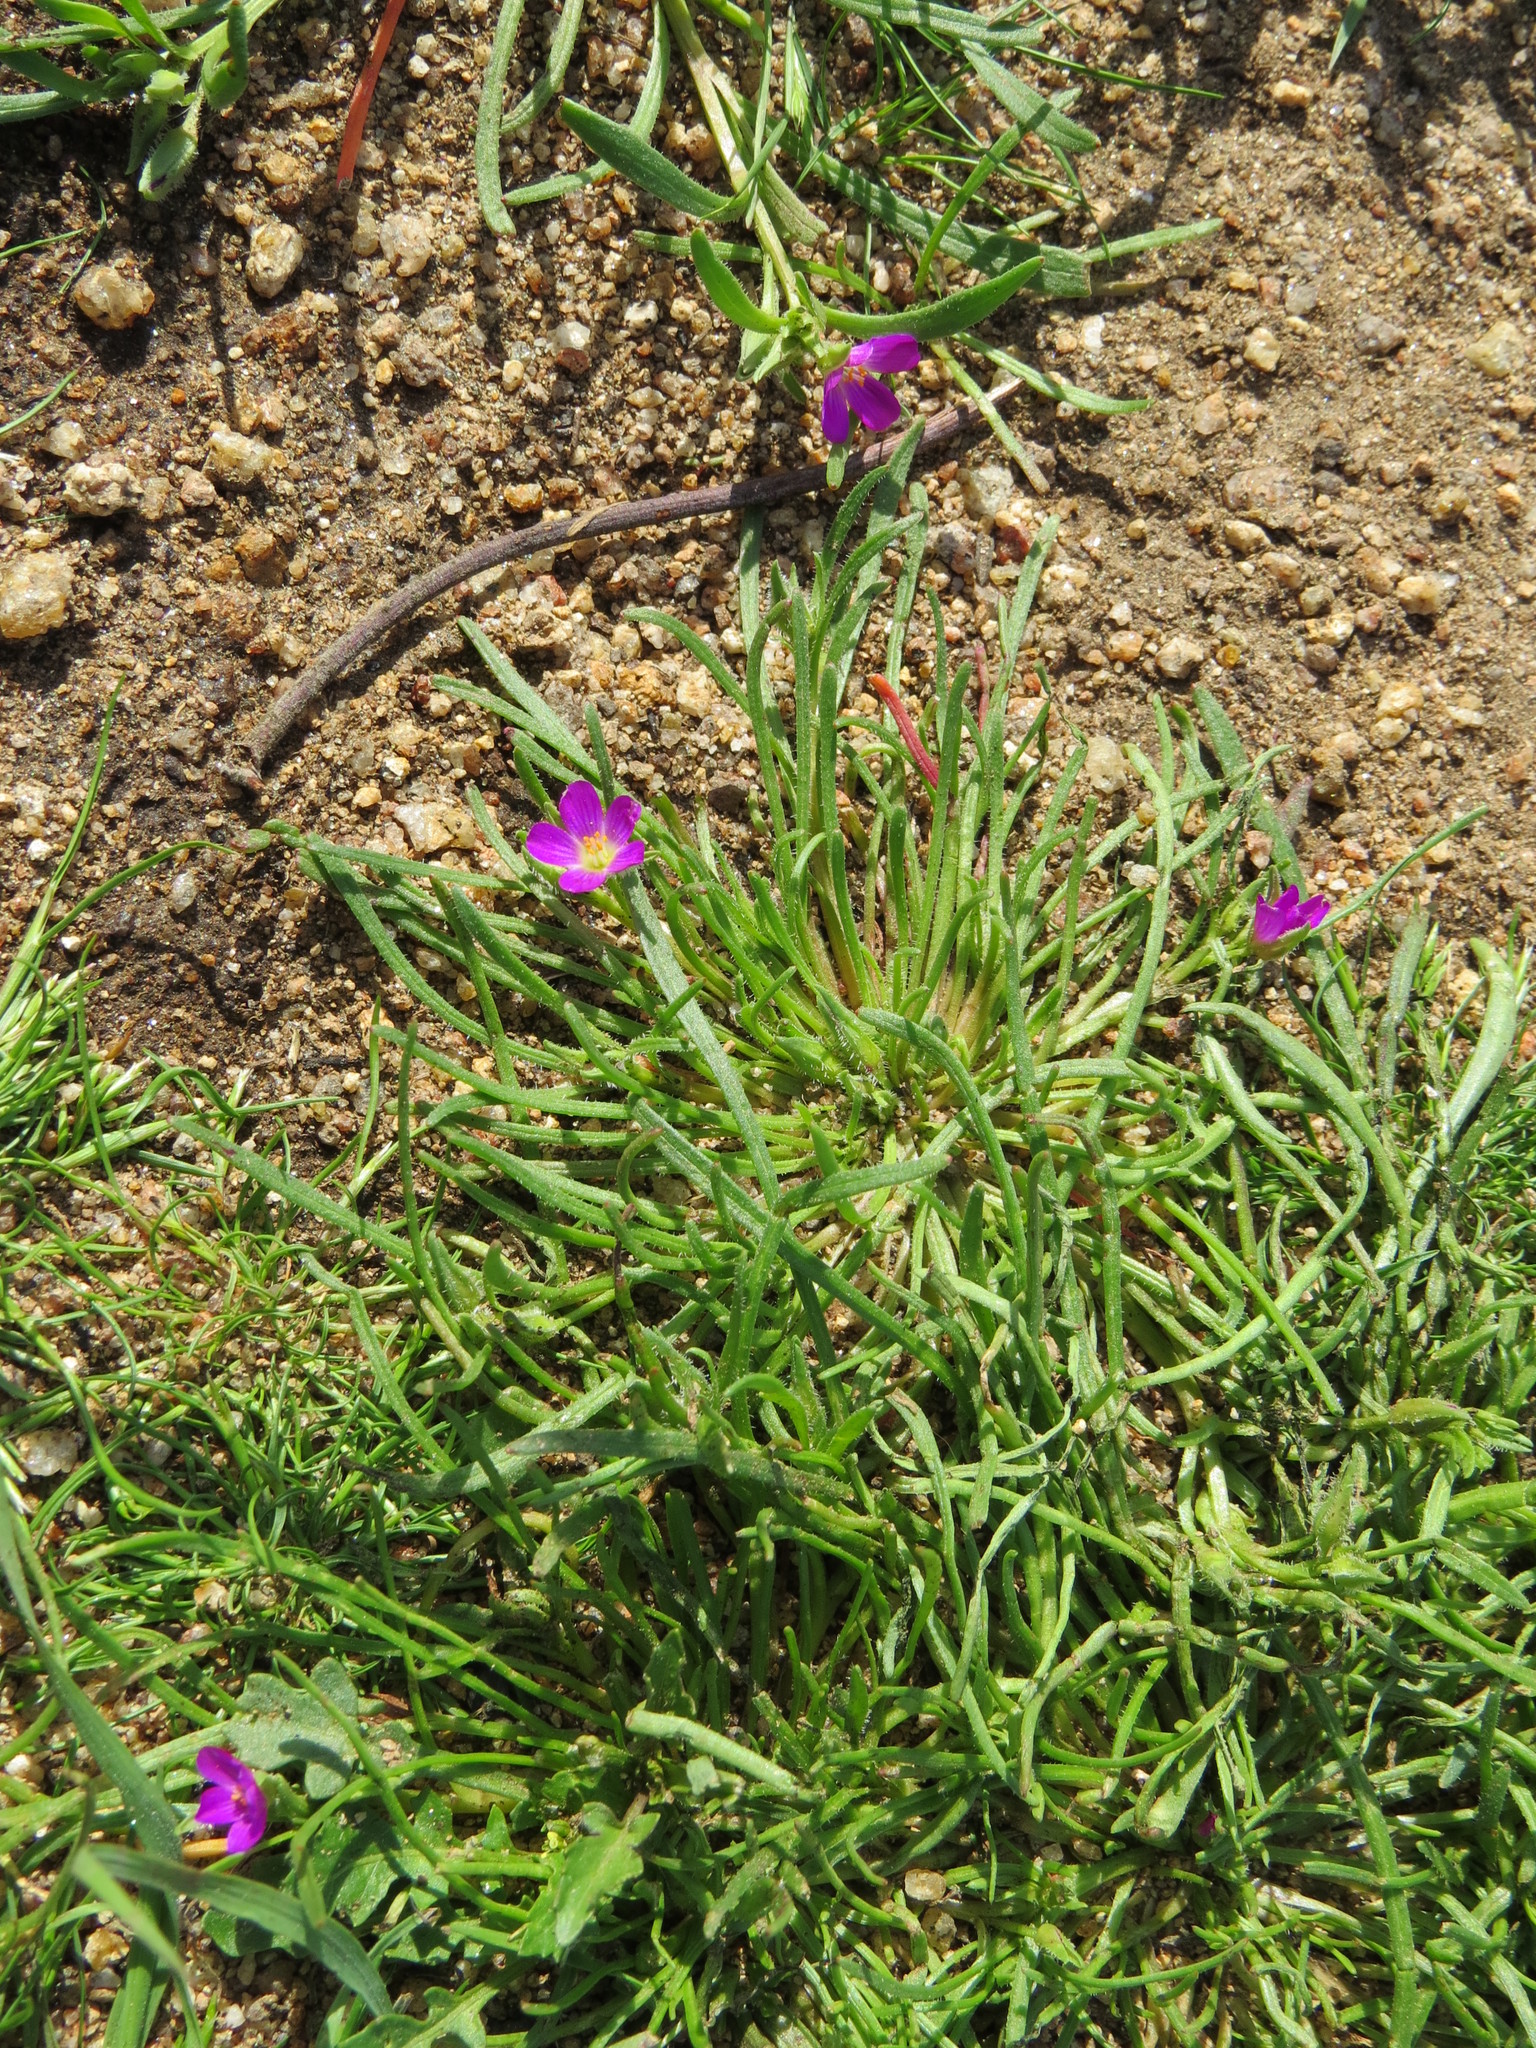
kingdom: Plantae
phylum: Tracheophyta
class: Magnoliopsida
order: Caryophyllales
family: Montiaceae
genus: Calandrinia
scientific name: Calandrinia menziesii
